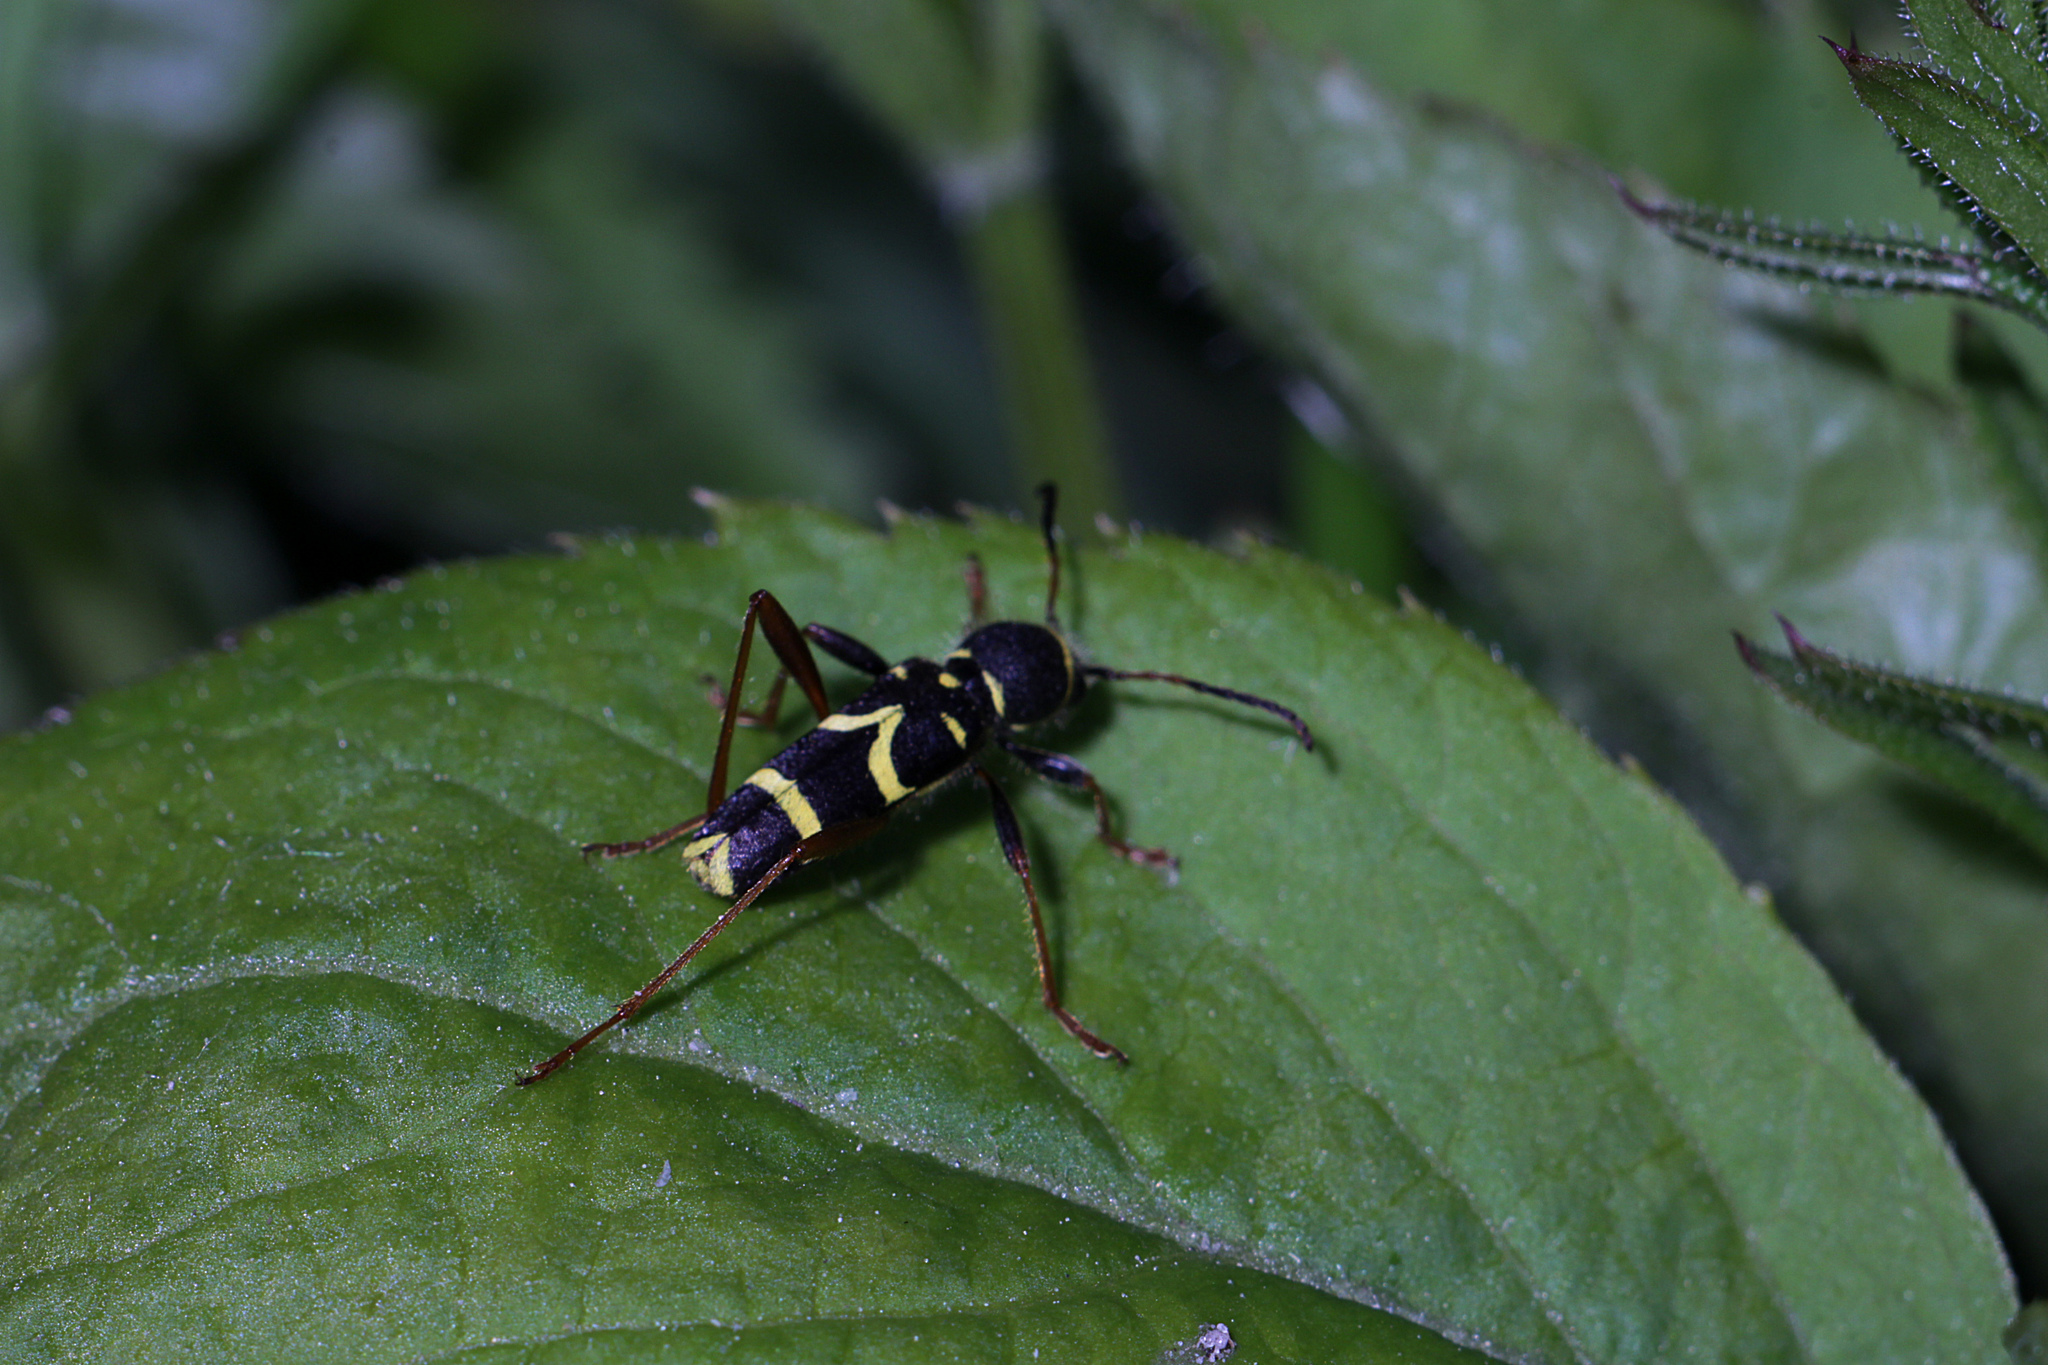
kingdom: Animalia
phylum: Arthropoda
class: Insecta
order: Coleoptera
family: Cerambycidae
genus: Clytus
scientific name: Clytus arietis
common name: Wasp beetle
